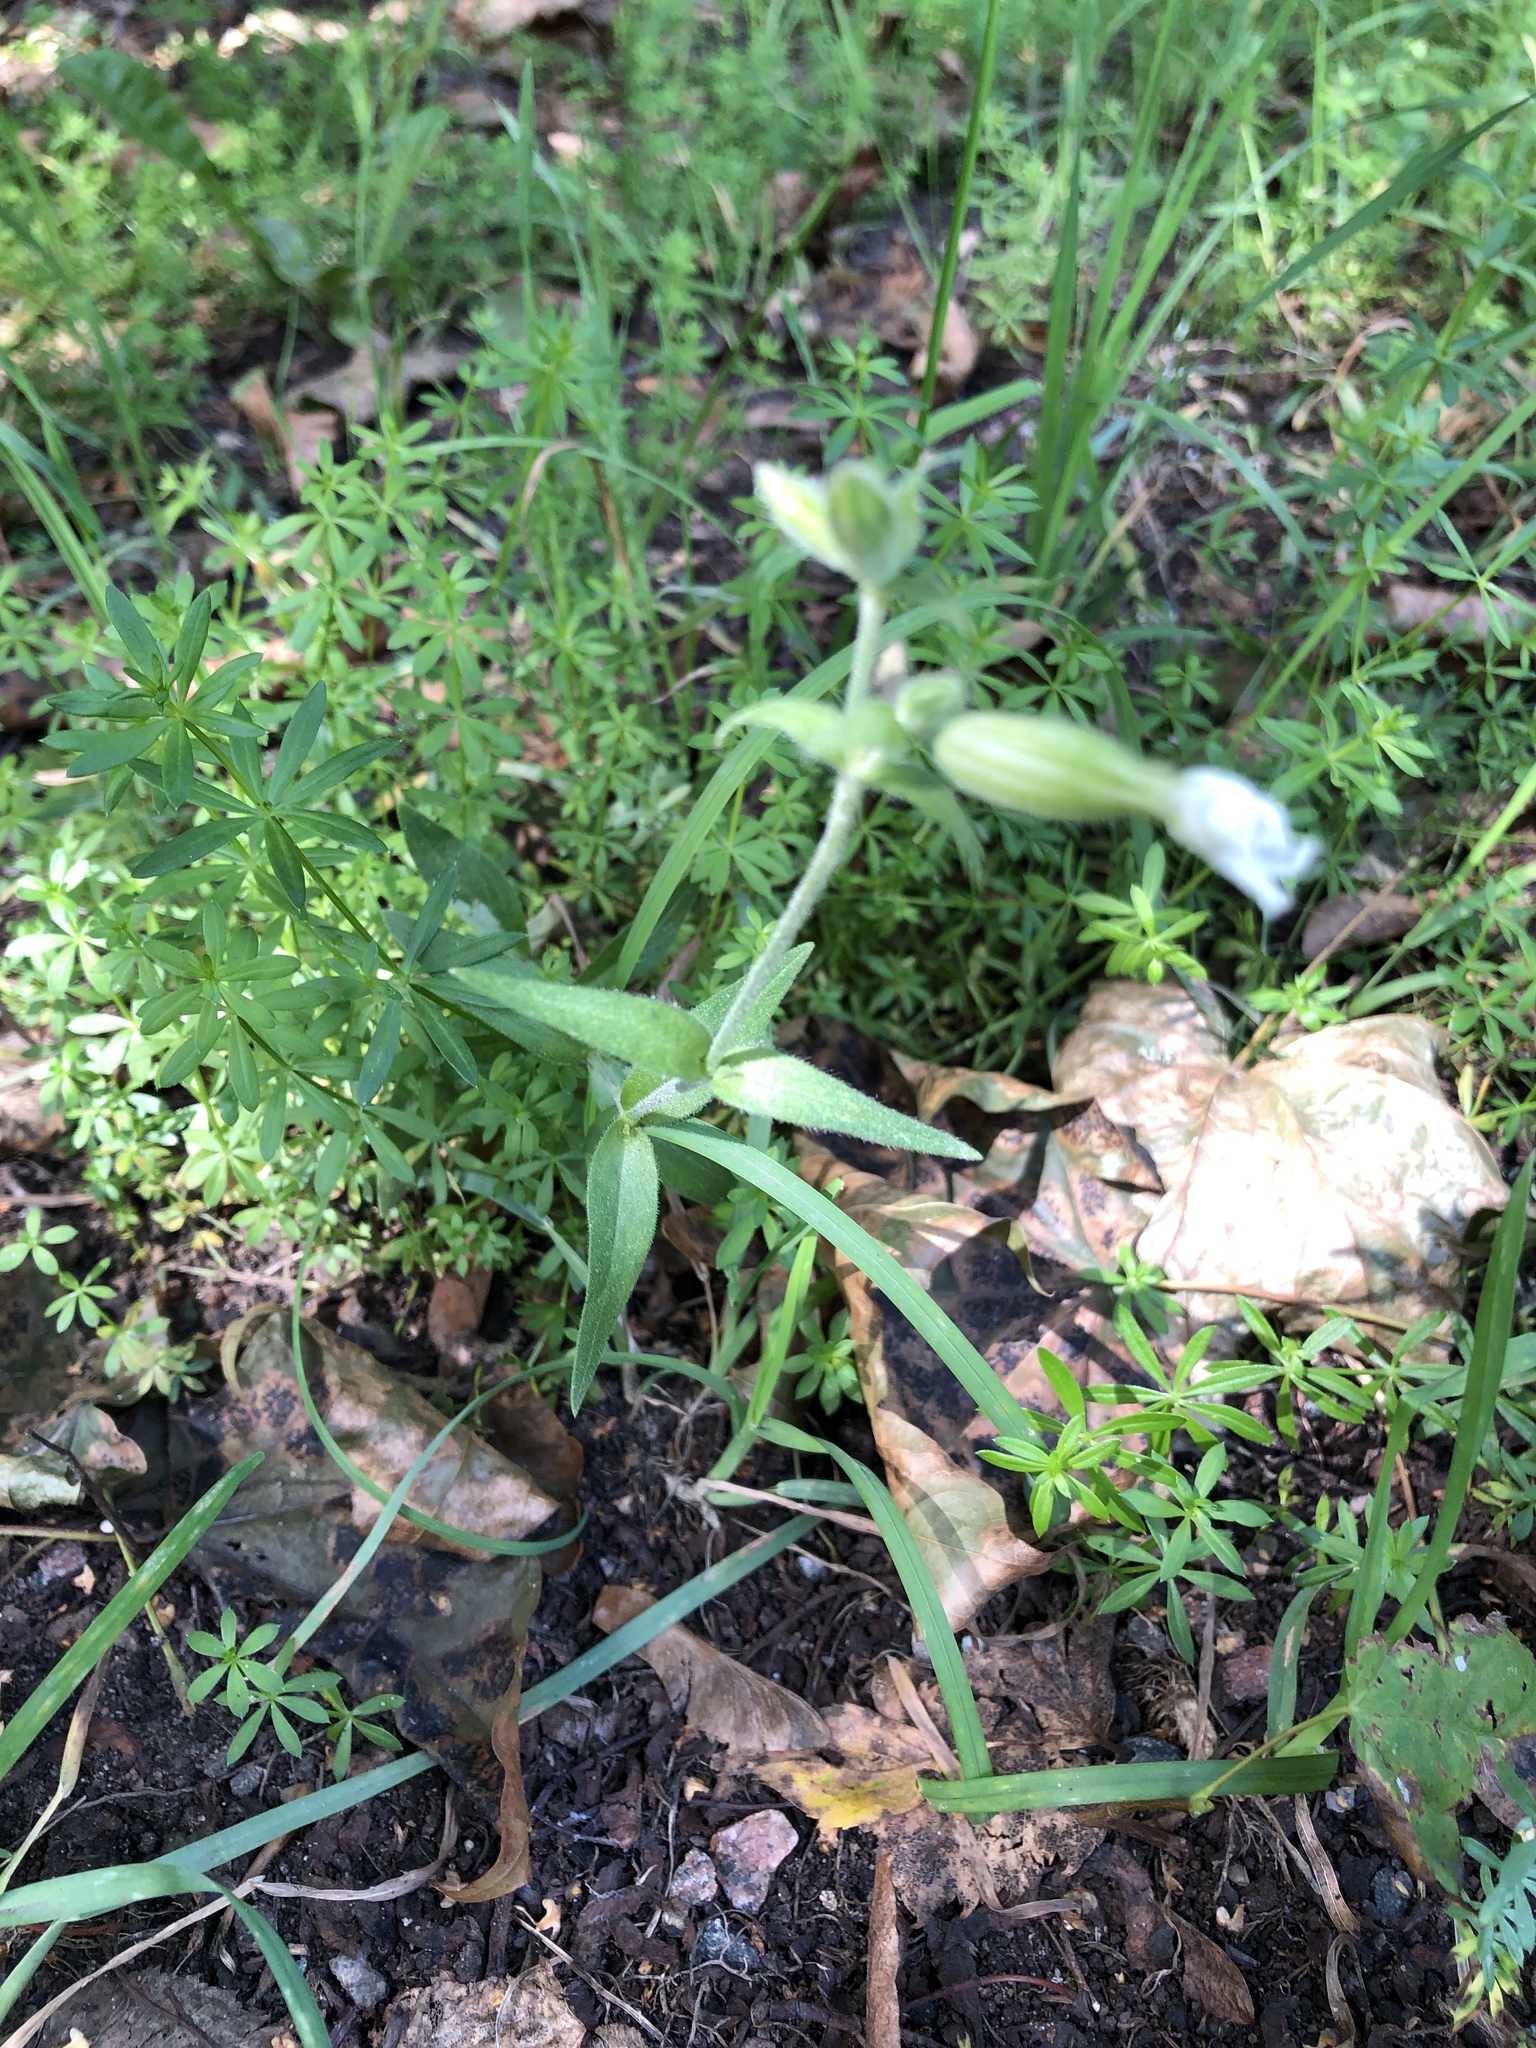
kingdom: Plantae
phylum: Tracheophyta
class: Magnoliopsida
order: Caryophyllales
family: Caryophyllaceae
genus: Silene
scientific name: Silene latifolia
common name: White campion
